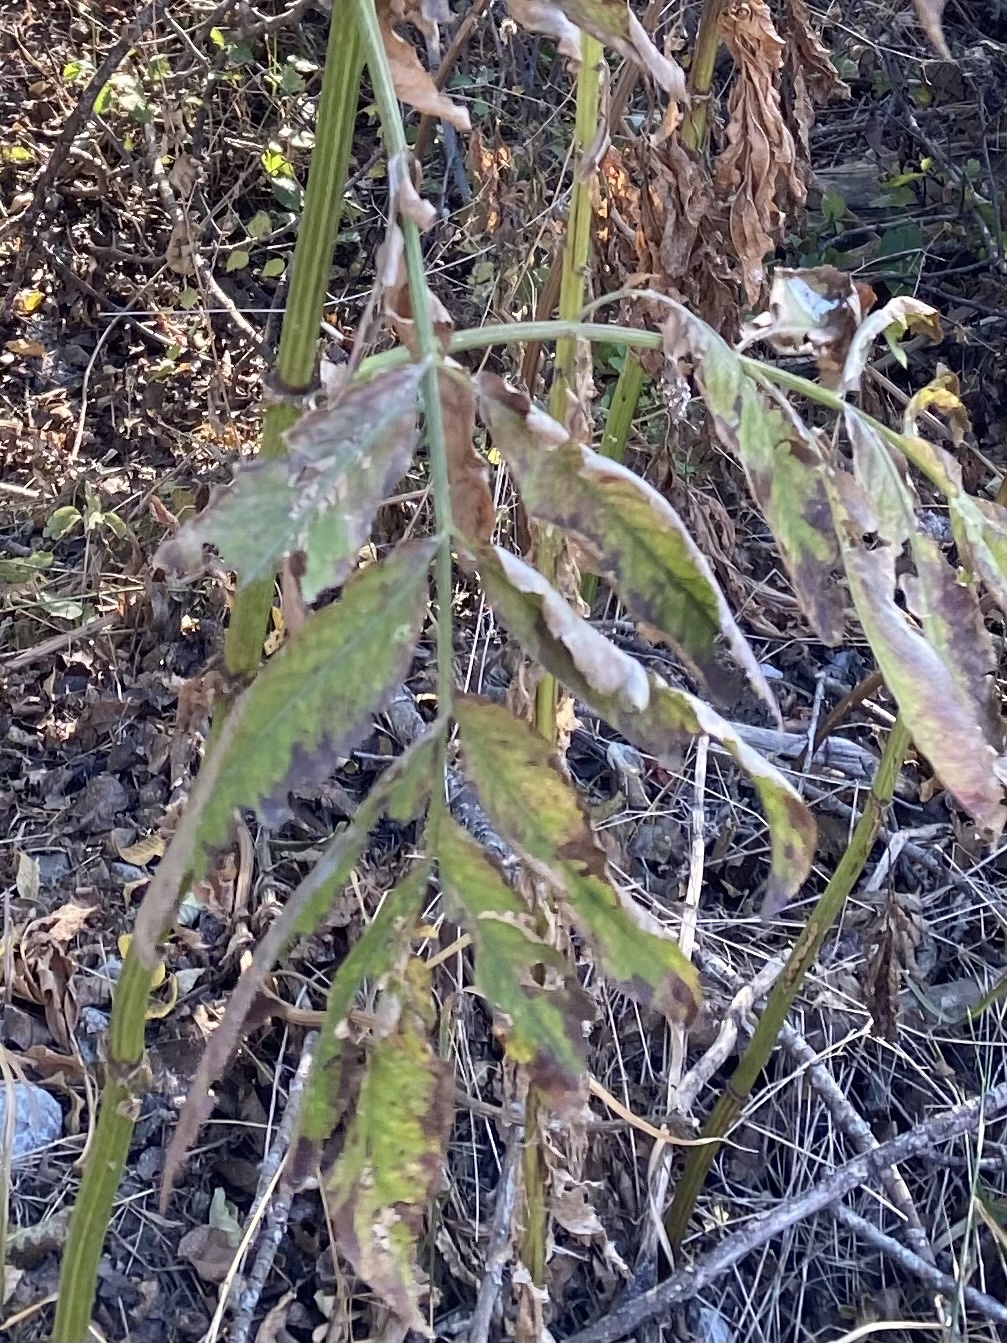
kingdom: Plantae
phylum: Tracheophyta
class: Magnoliopsida
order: Dipsacales
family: Viburnaceae
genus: Sambucus
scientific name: Sambucus ebulus
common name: Dwarf elder
